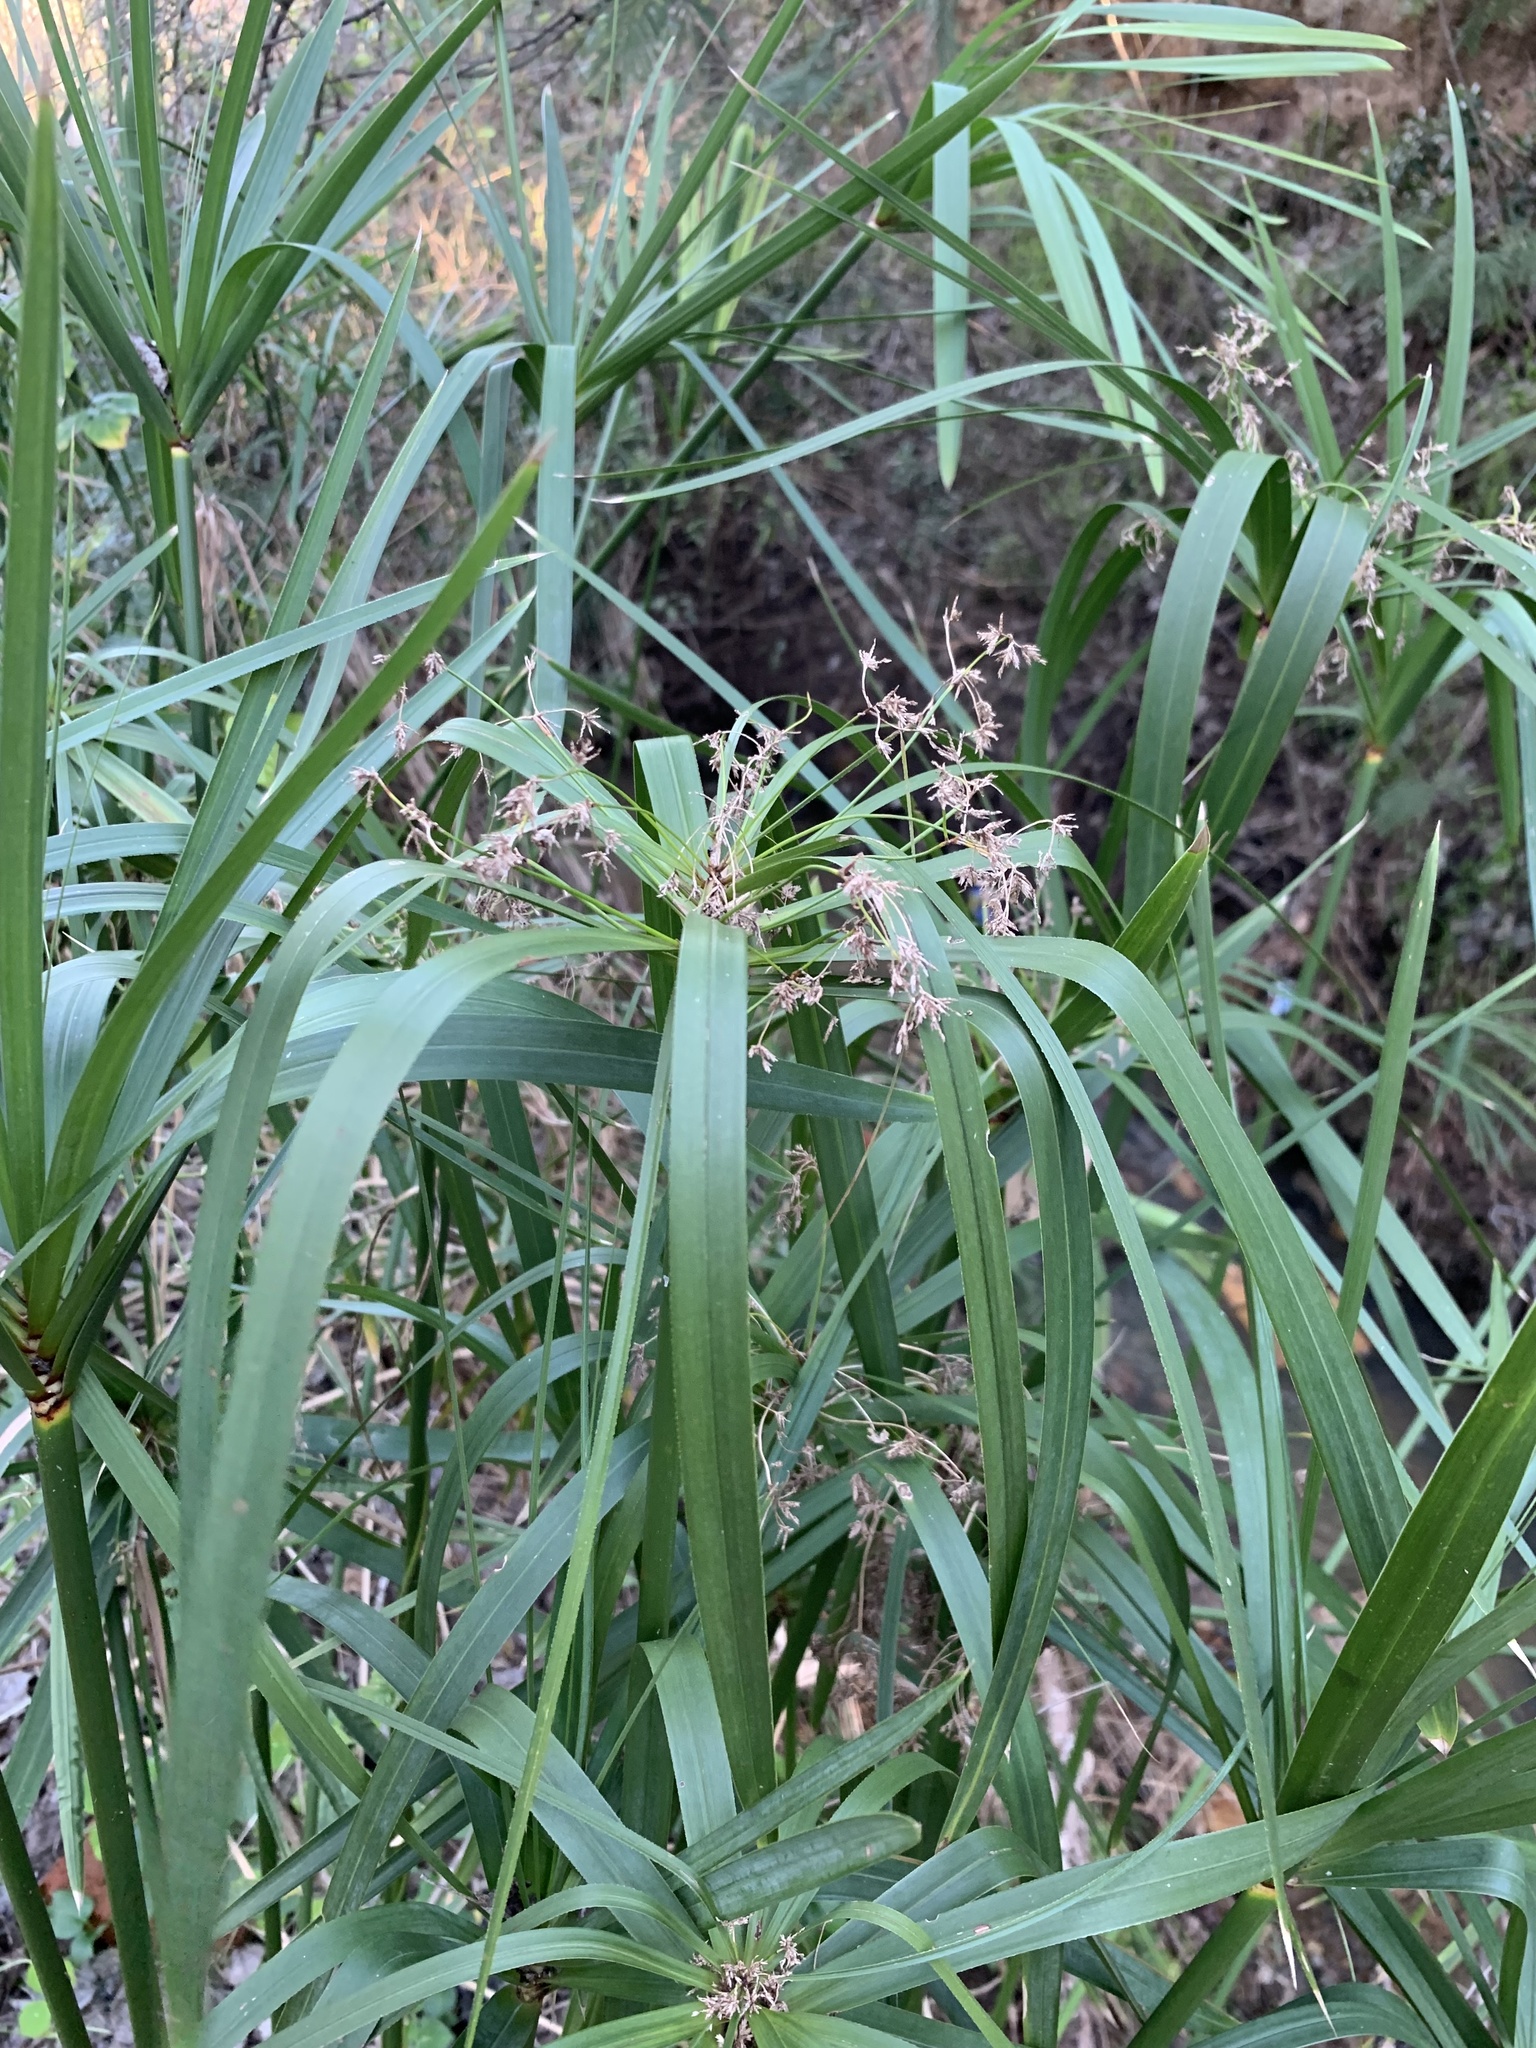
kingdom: Plantae
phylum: Tracheophyta
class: Liliopsida
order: Poales
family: Cyperaceae
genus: Cyperus
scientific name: Cyperus textilis
